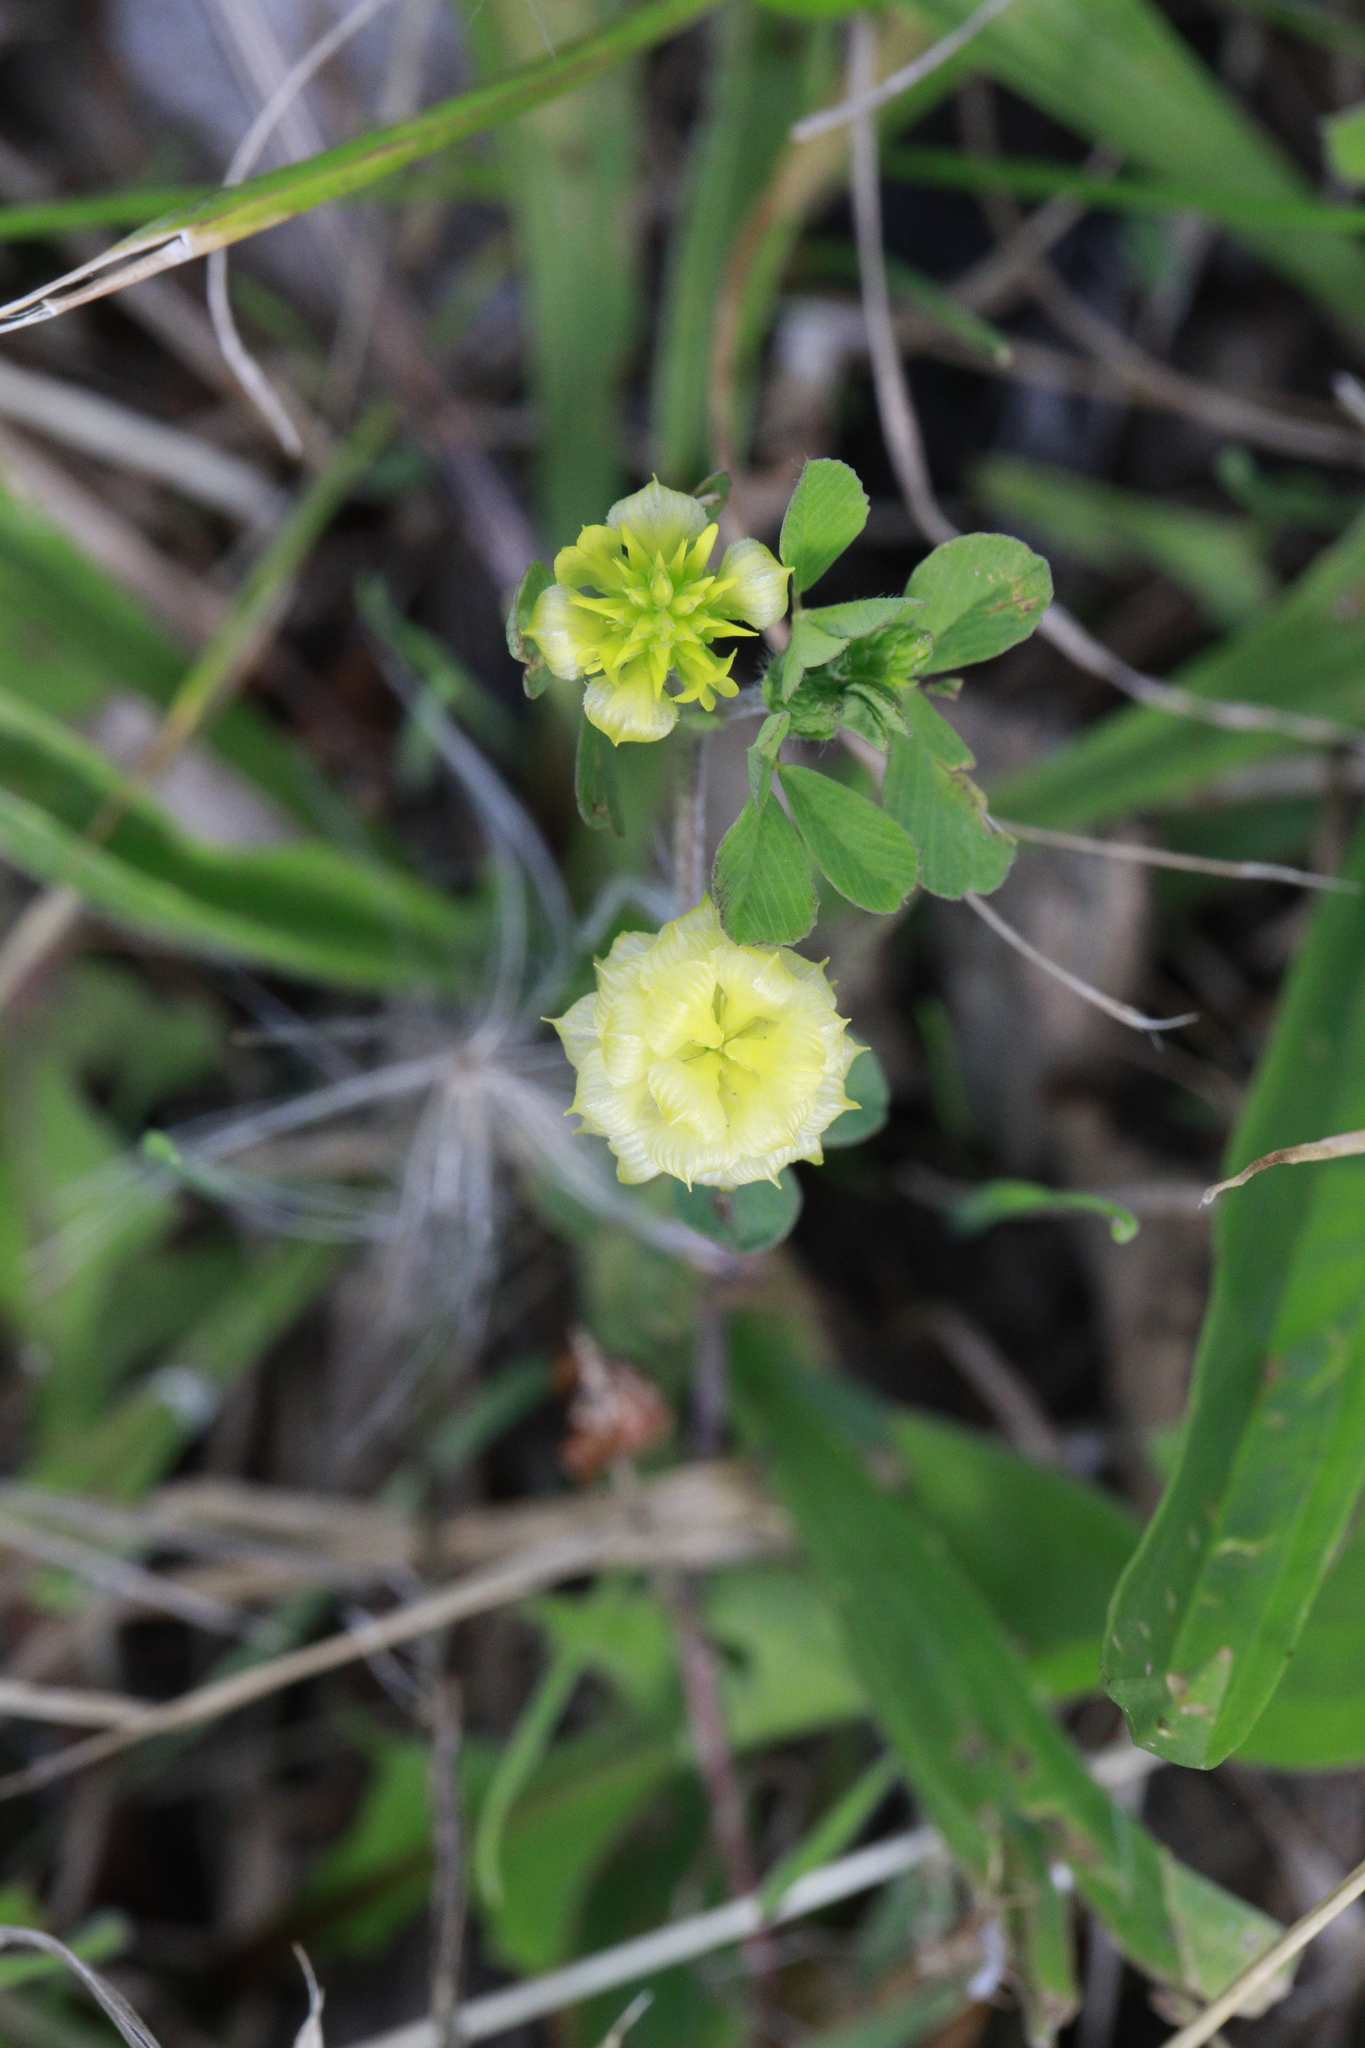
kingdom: Plantae
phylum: Tracheophyta
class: Magnoliopsida
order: Fabales
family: Fabaceae
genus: Trifolium
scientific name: Trifolium campestre
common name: Field clover
